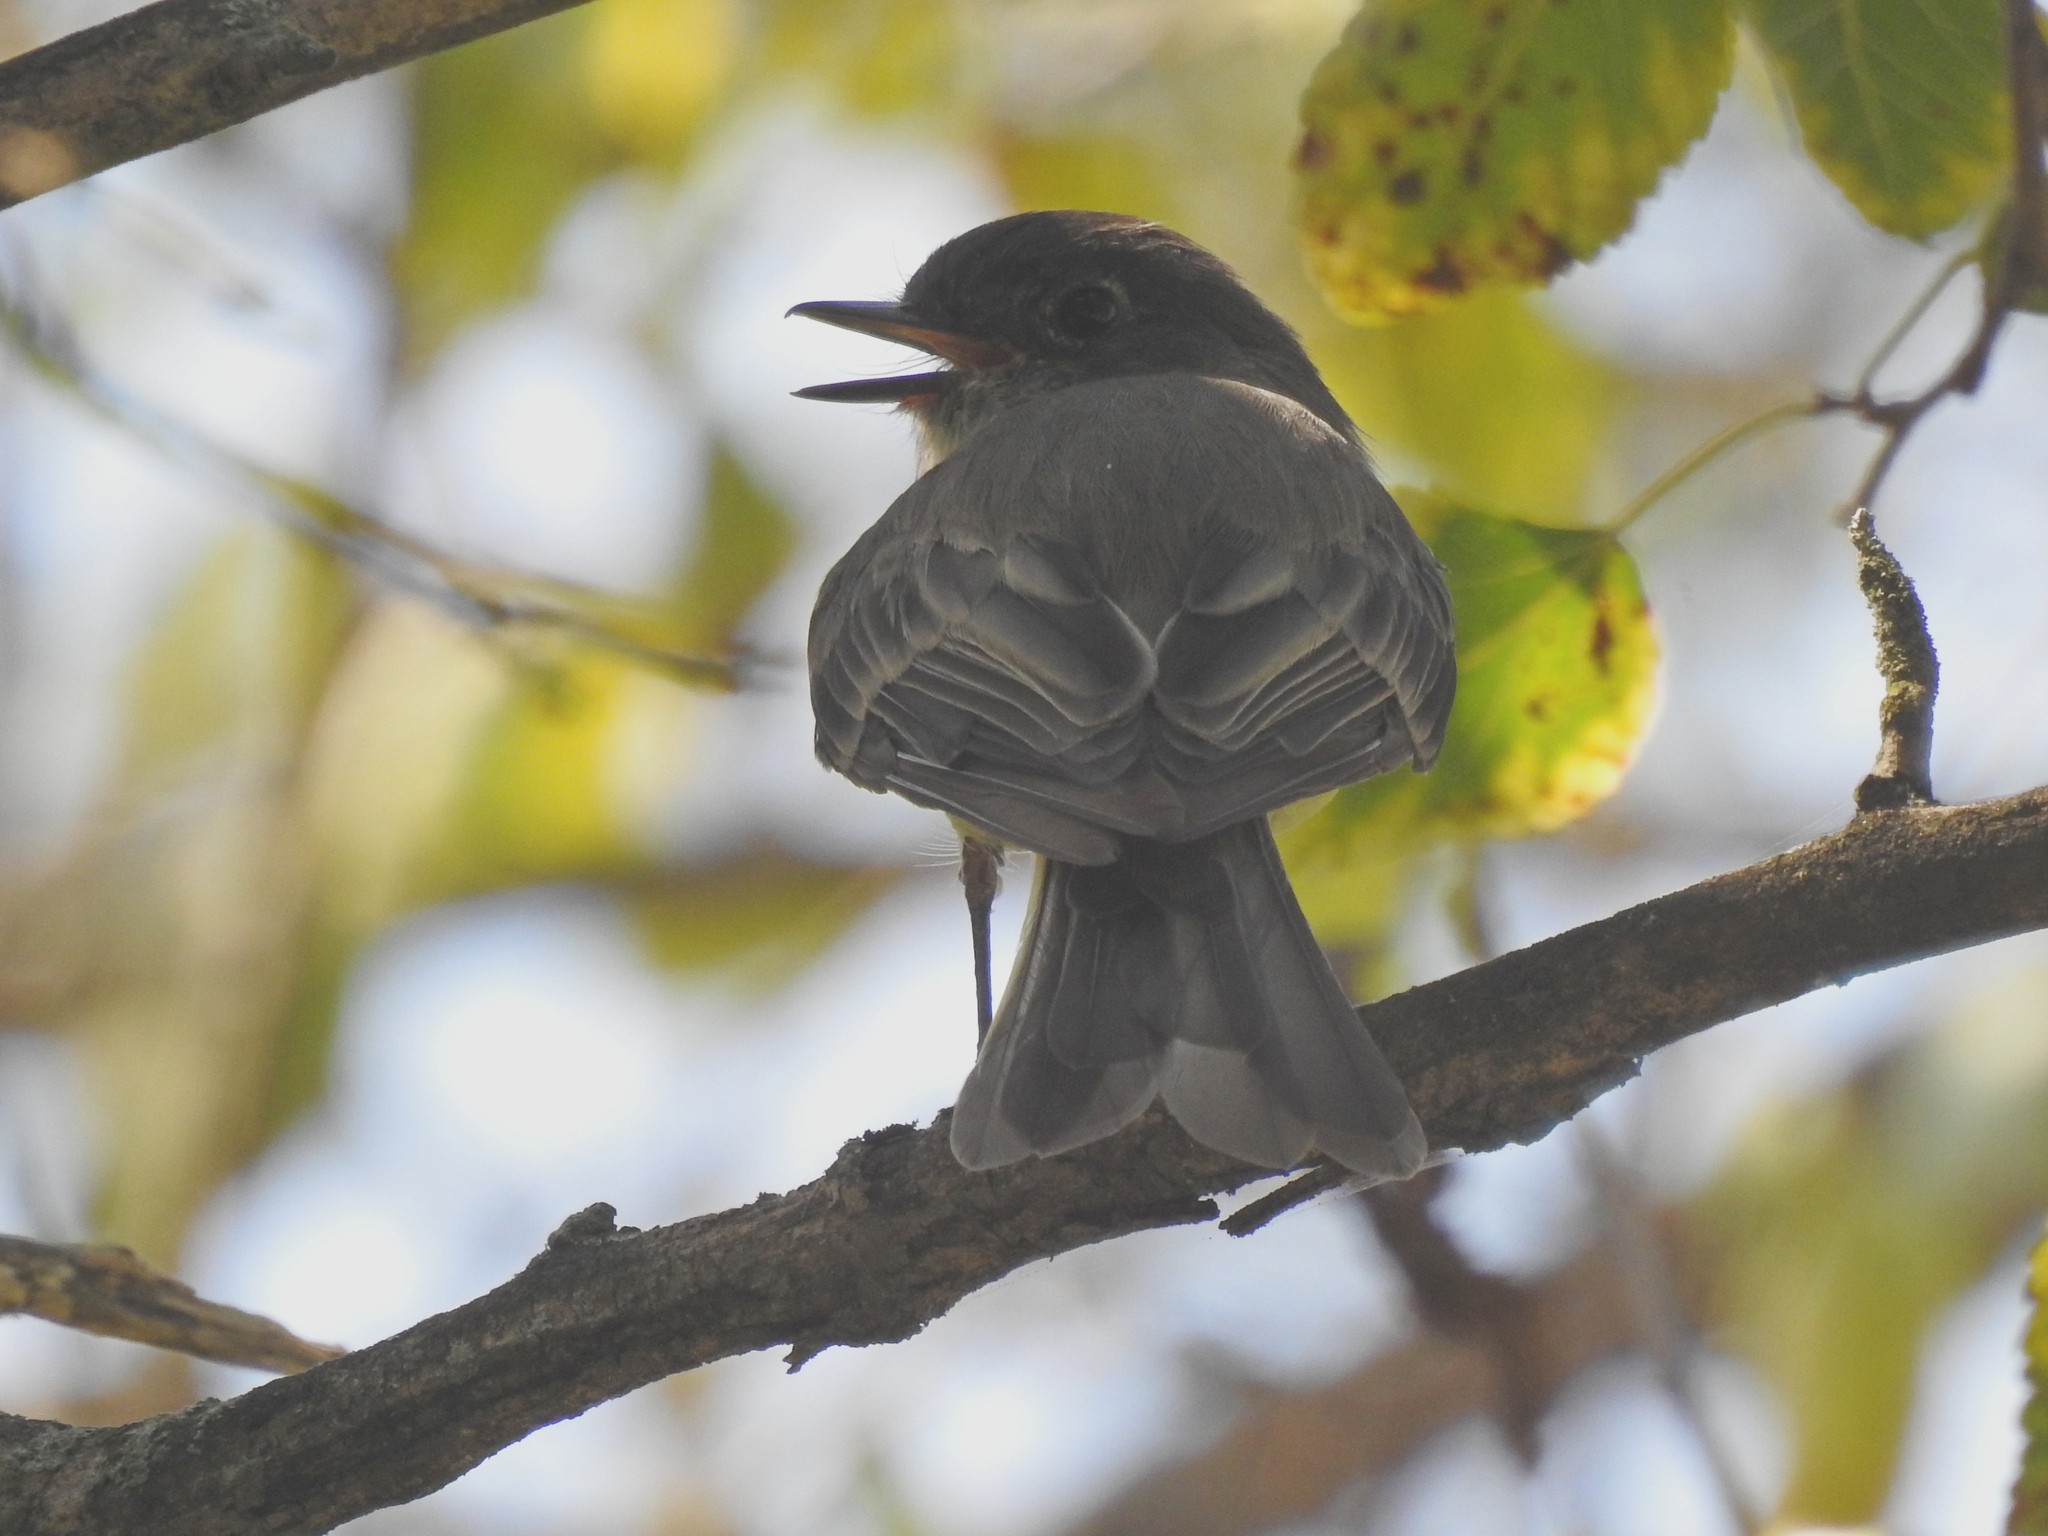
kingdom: Animalia
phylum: Chordata
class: Aves
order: Passeriformes
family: Tyrannidae
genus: Sayornis
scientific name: Sayornis phoebe
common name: Eastern phoebe
